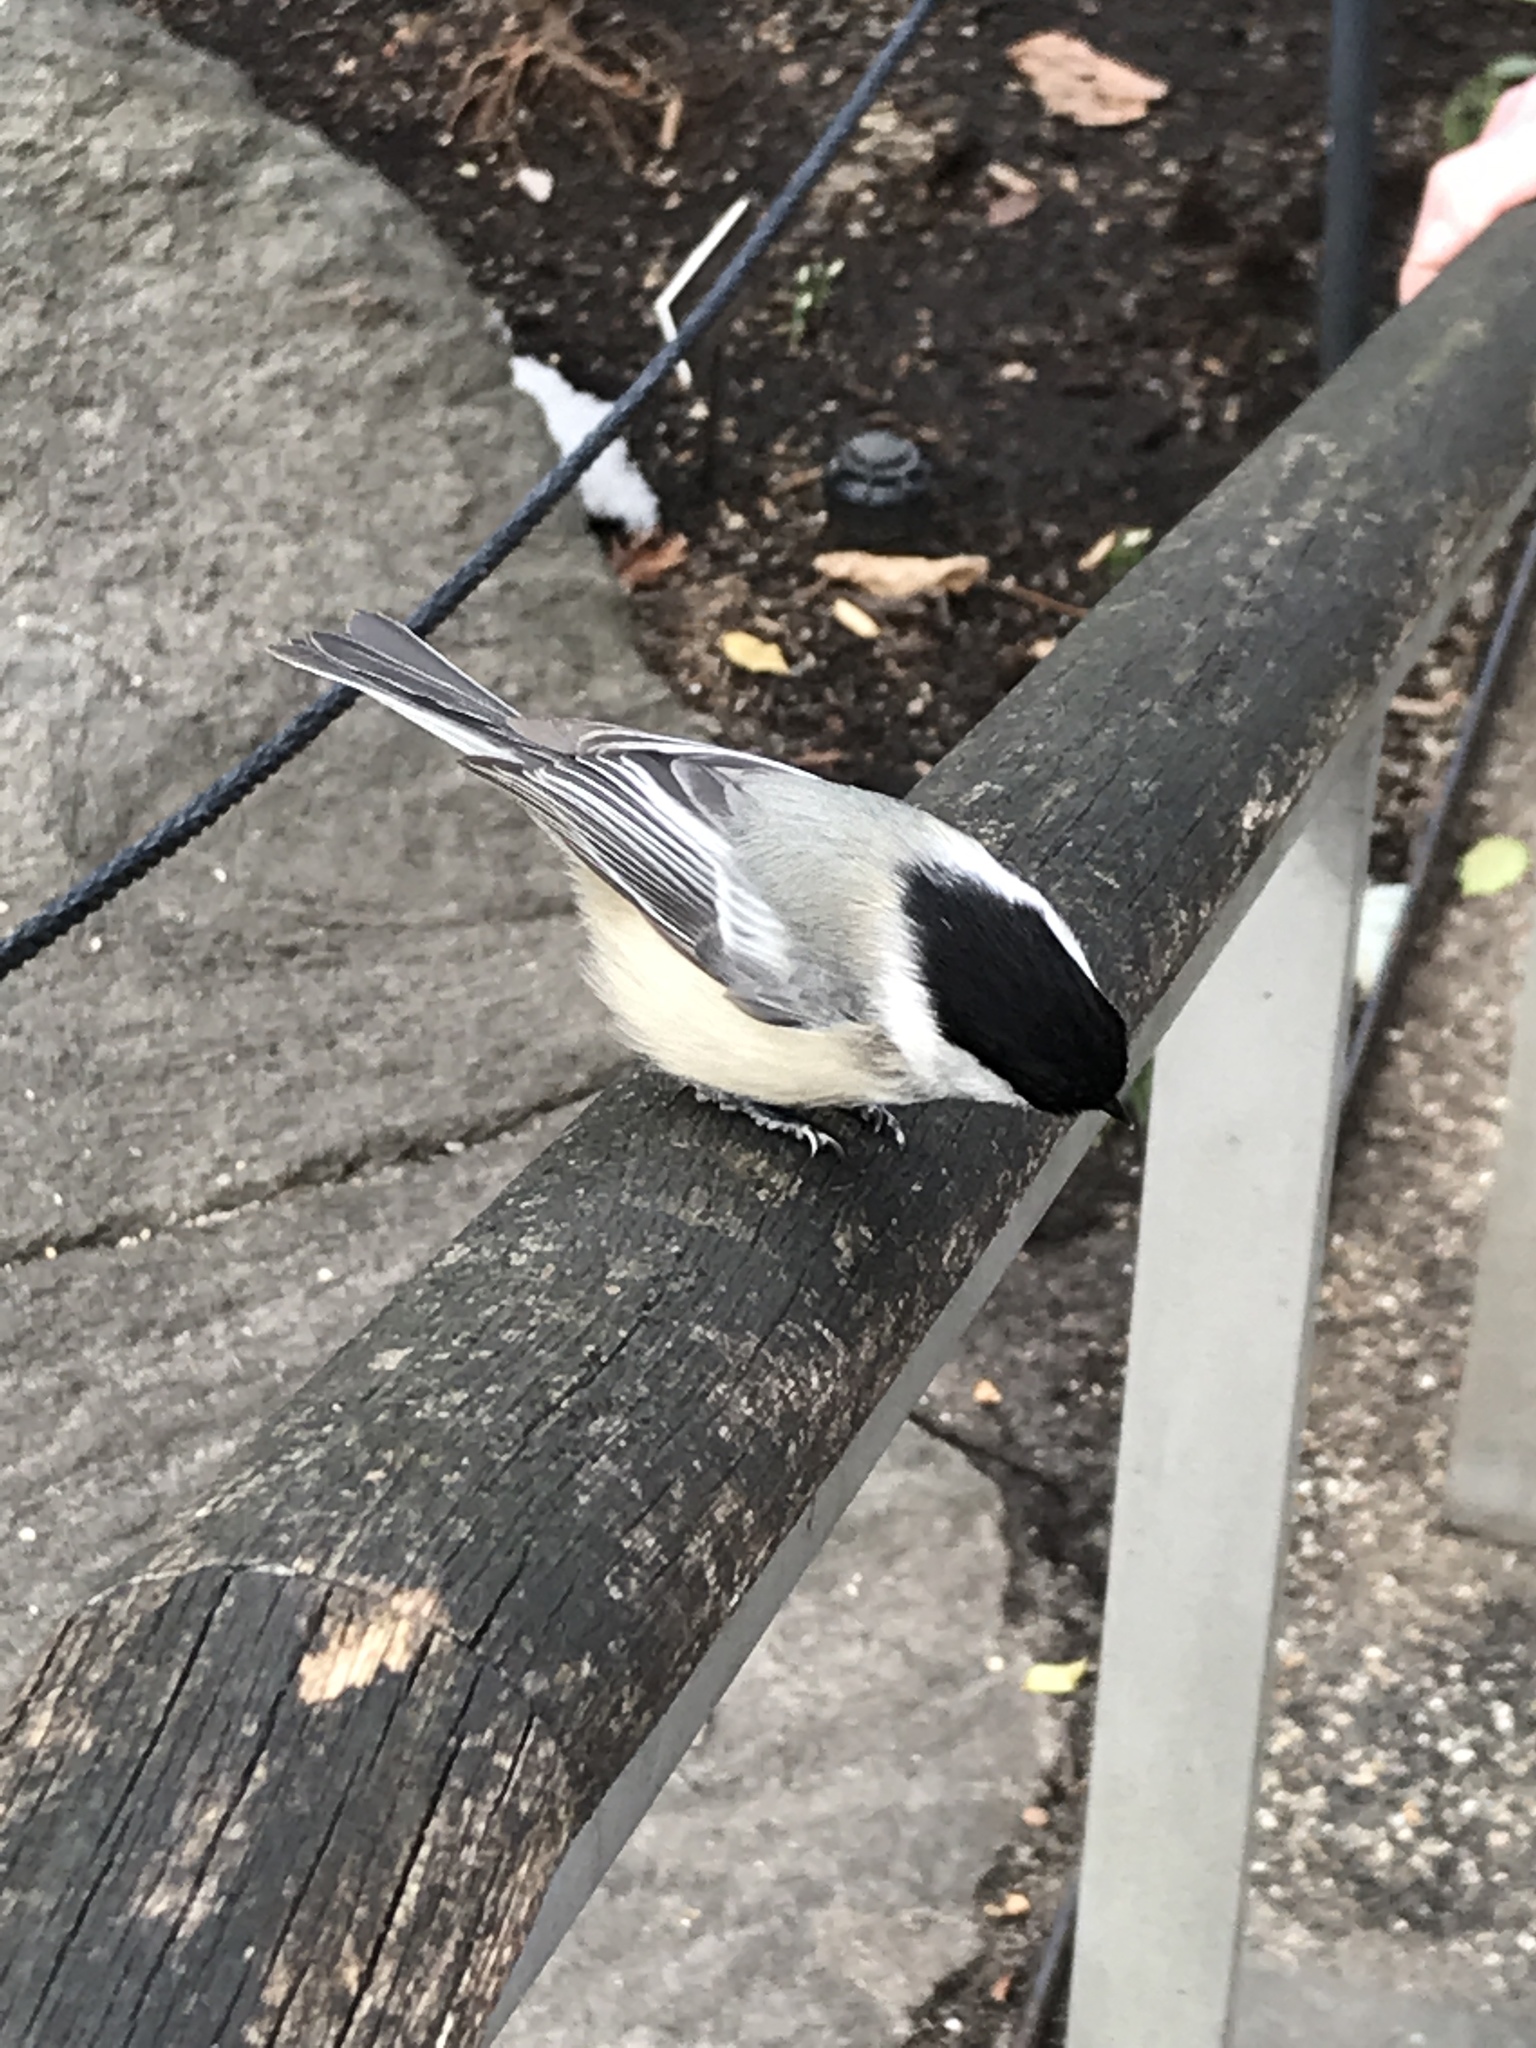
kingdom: Animalia
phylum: Chordata
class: Aves
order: Passeriformes
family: Paridae
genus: Poecile
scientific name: Poecile atricapillus
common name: Black-capped chickadee
